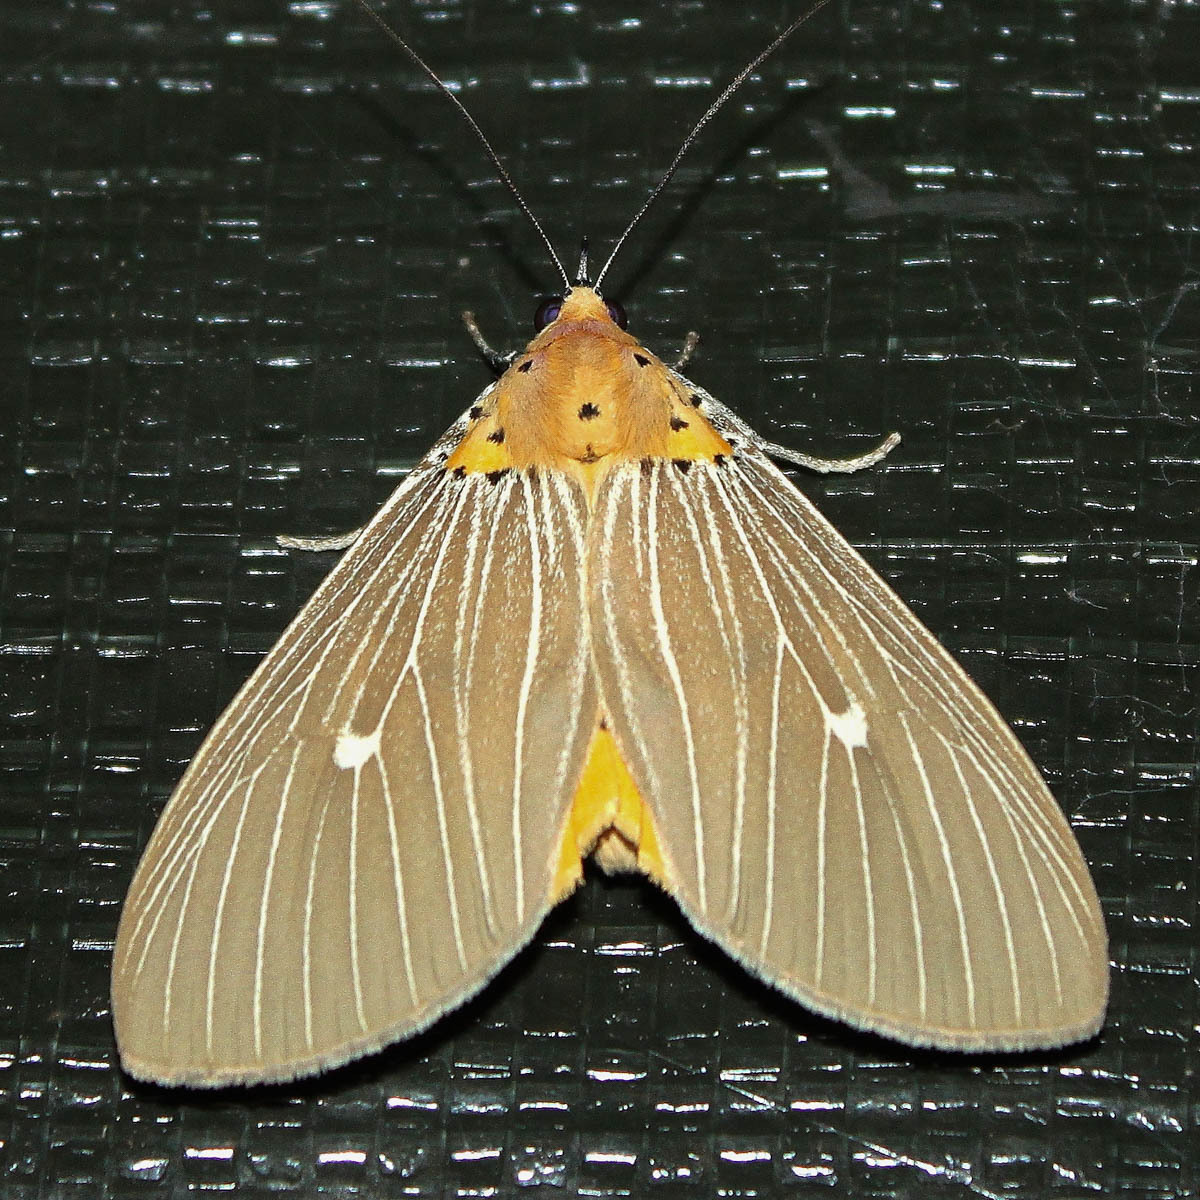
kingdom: Animalia
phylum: Arthropoda
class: Insecta
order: Lepidoptera
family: Erebidae
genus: Asota
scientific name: Asota caricae
